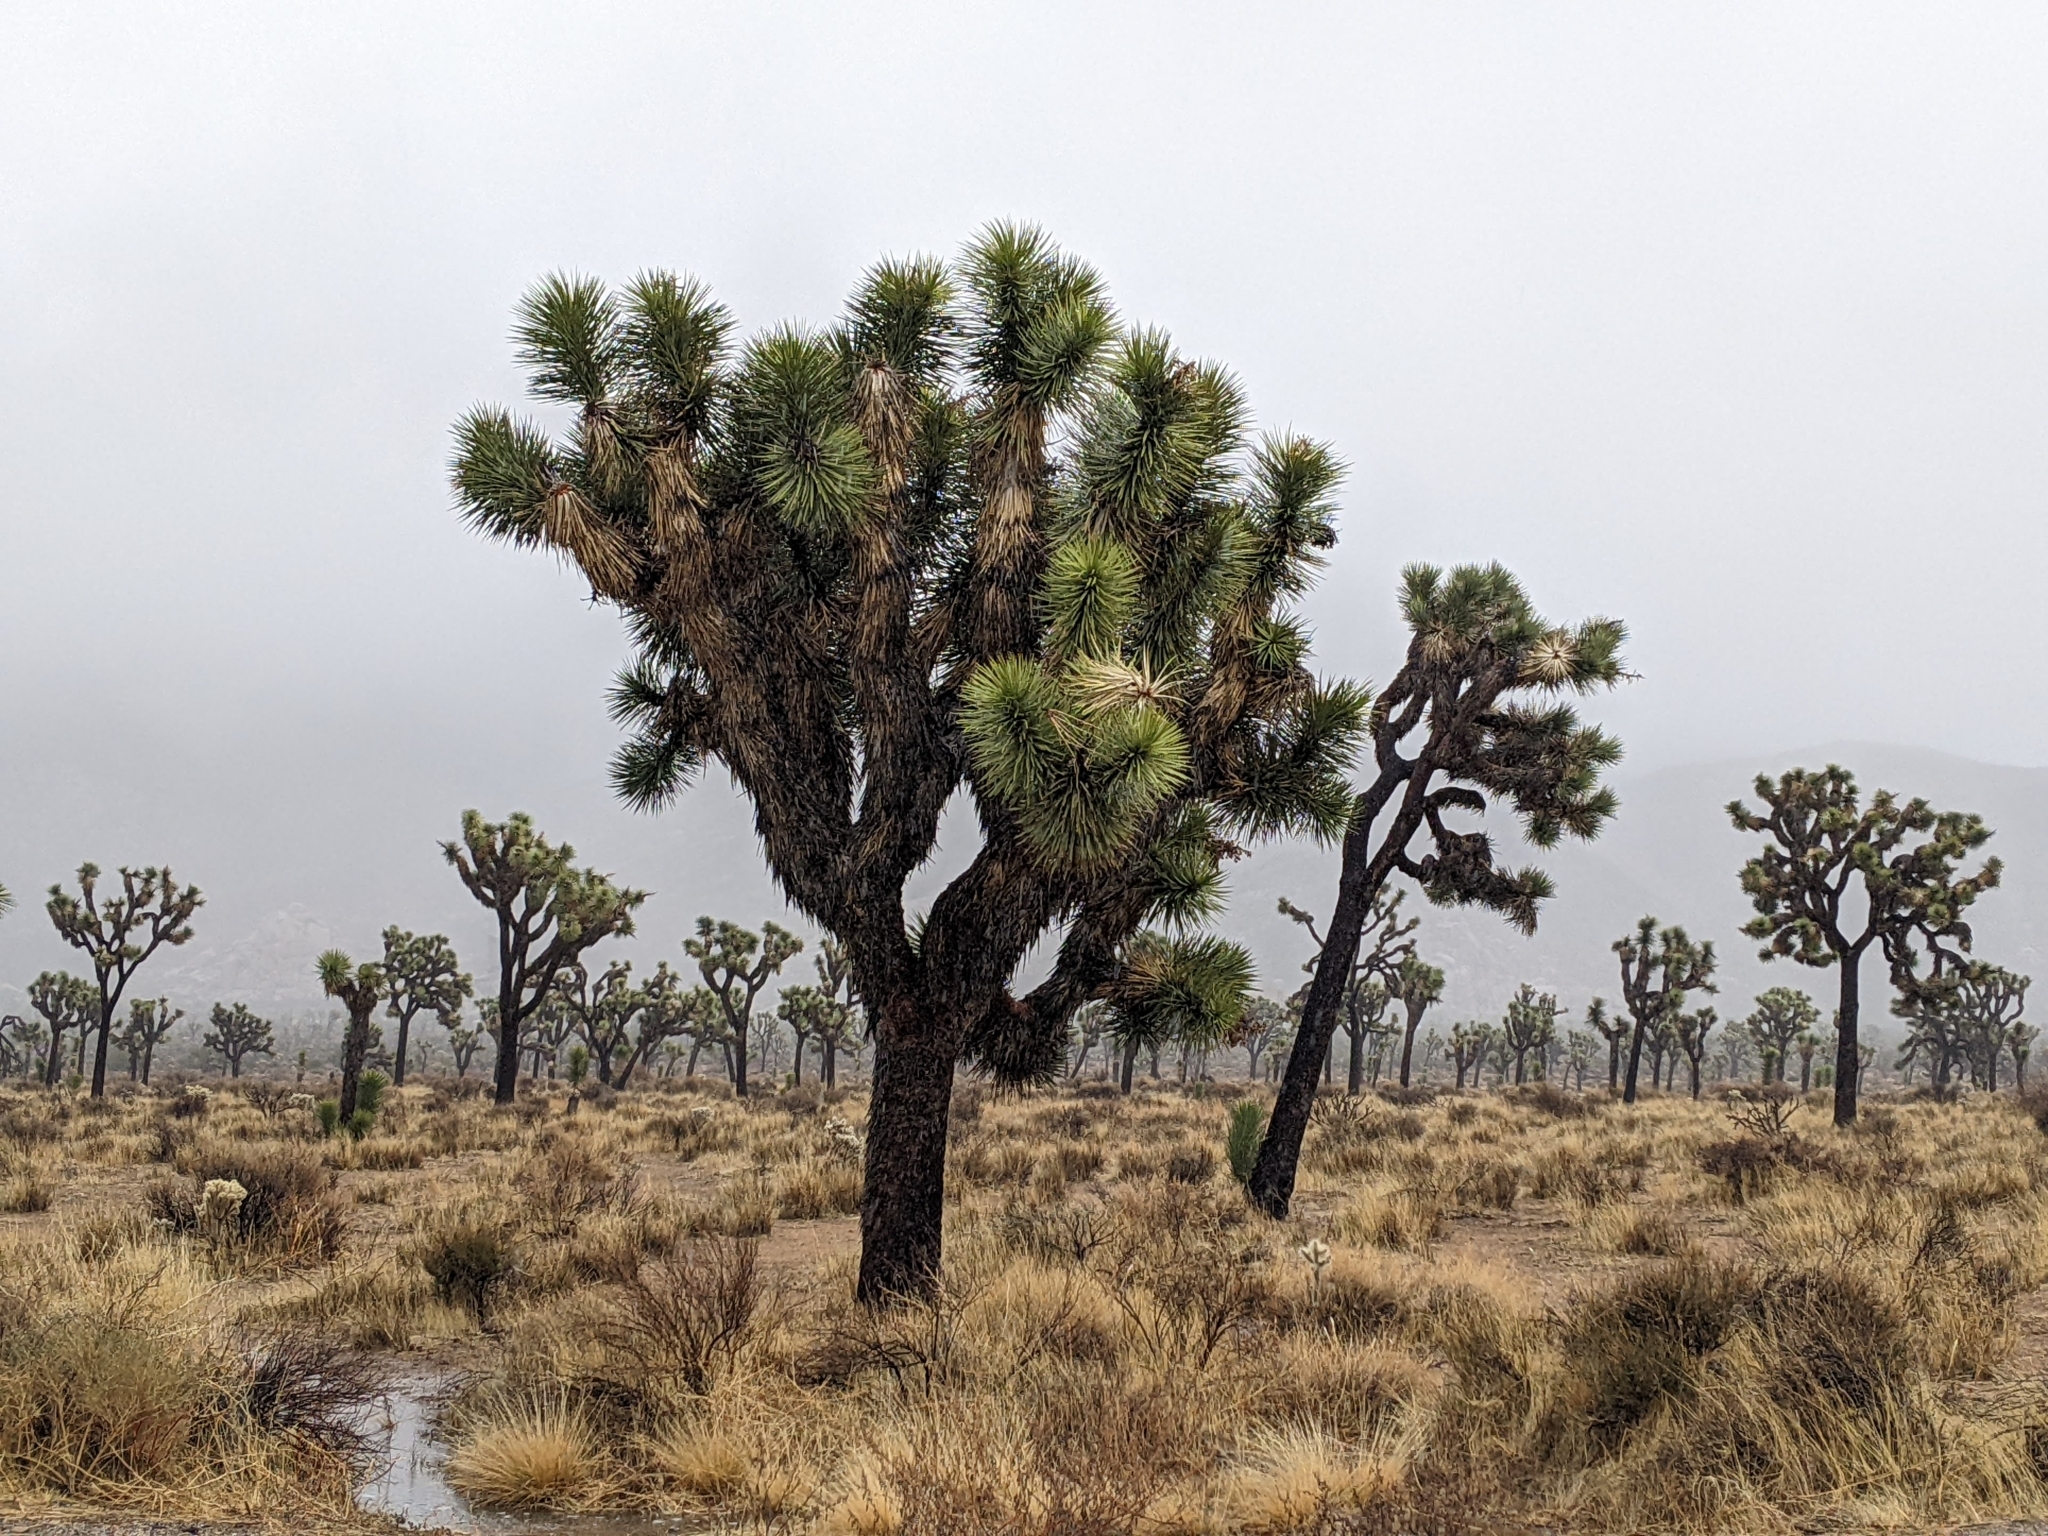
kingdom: Plantae
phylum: Tracheophyta
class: Liliopsida
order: Asparagales
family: Asparagaceae
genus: Yucca
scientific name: Yucca brevifolia
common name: Joshua tree
